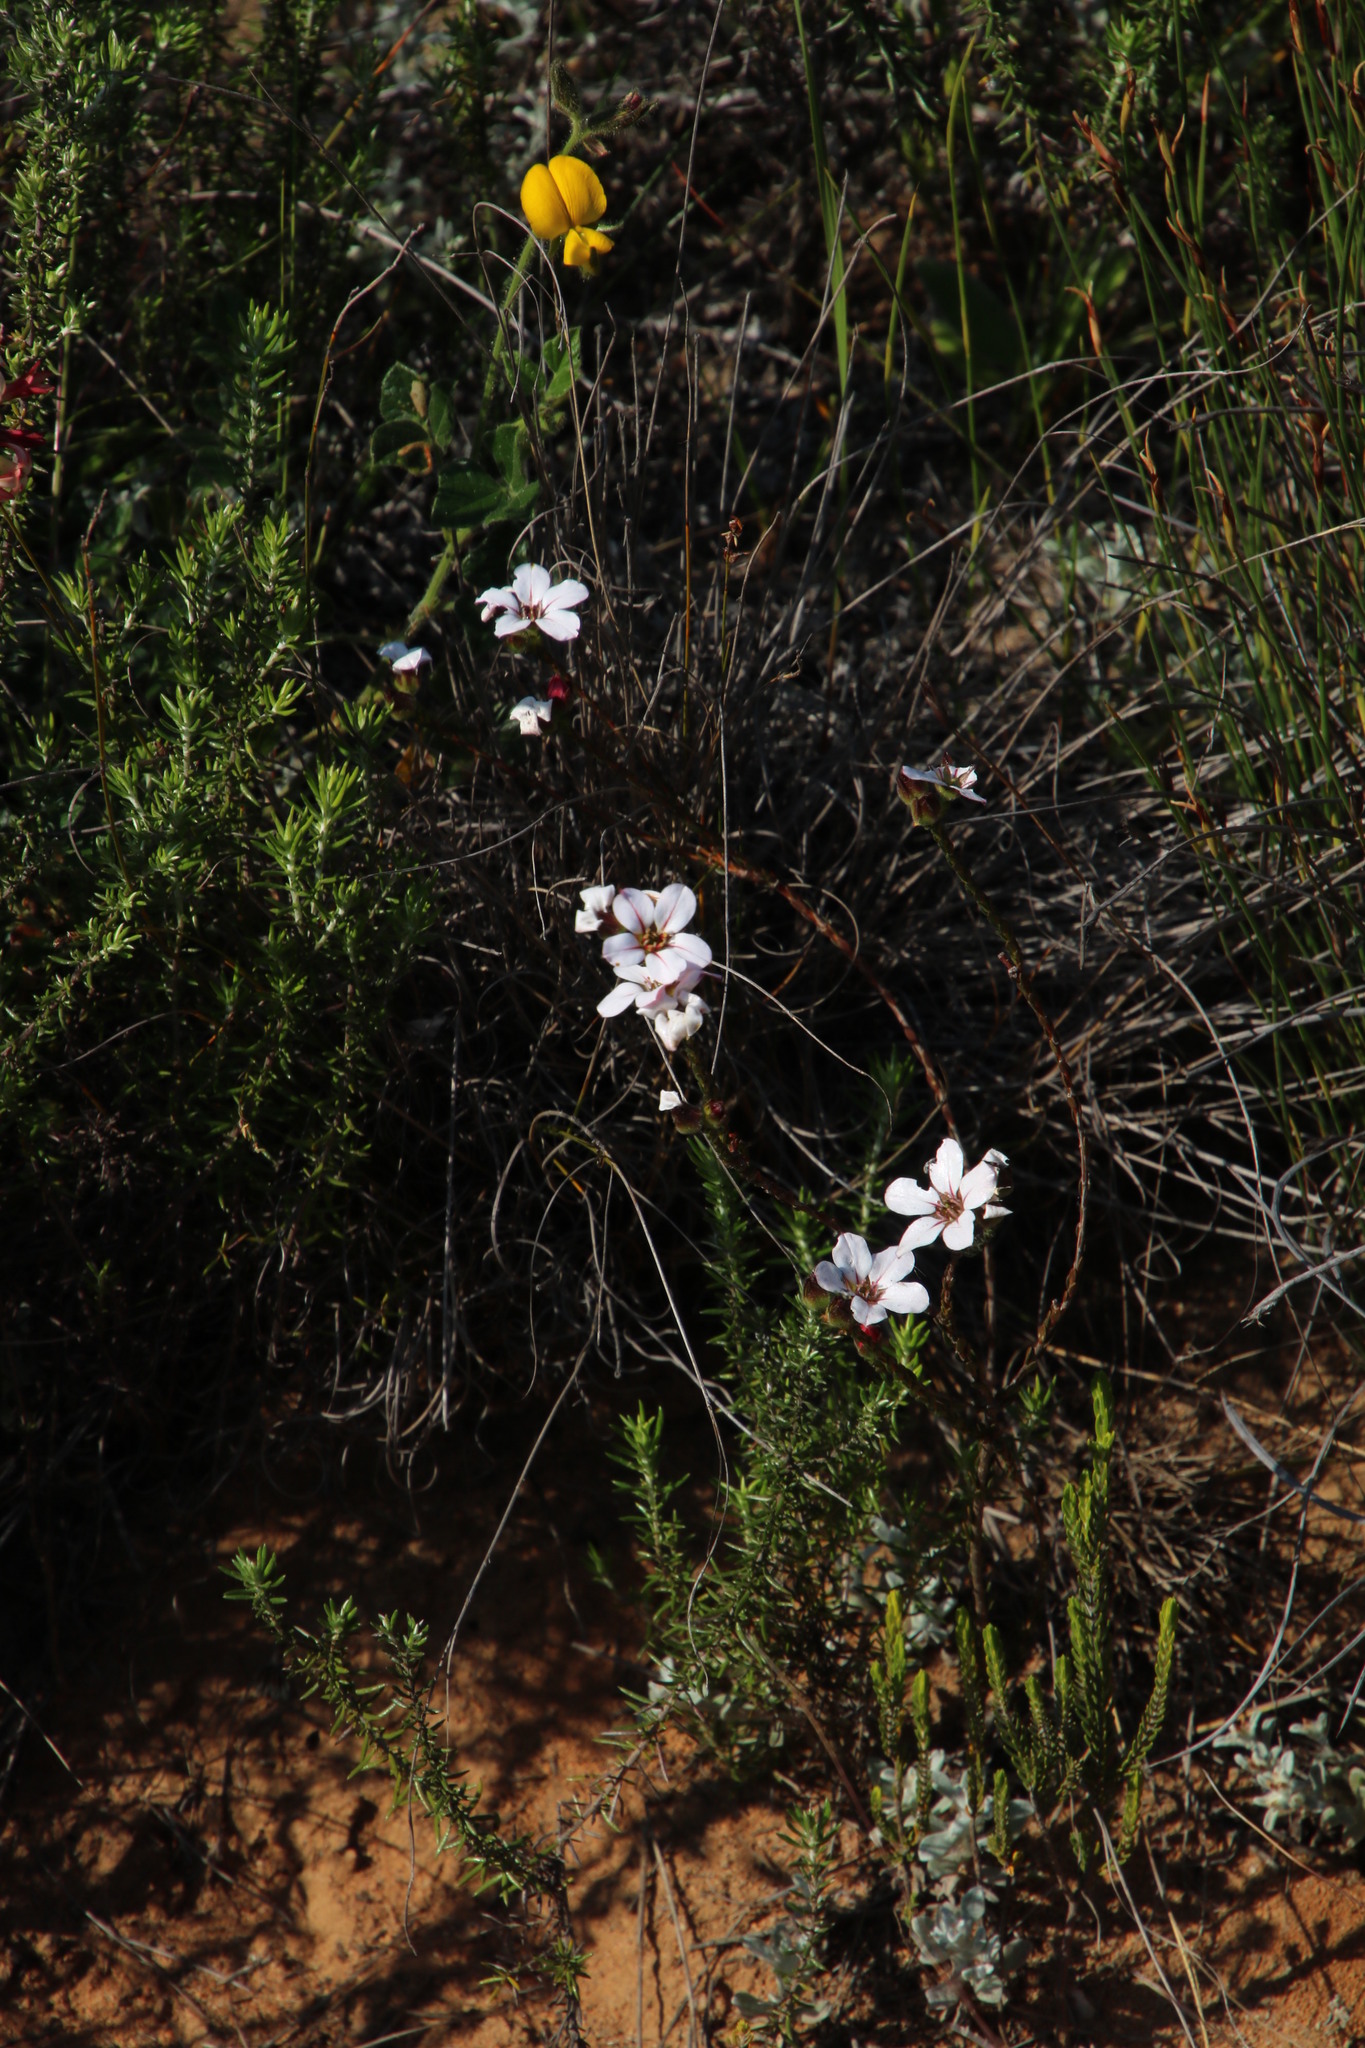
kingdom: Plantae
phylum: Tracheophyta
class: Magnoliopsida
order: Sapindales
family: Rutaceae
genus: Adenandra
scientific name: Adenandra villosa
